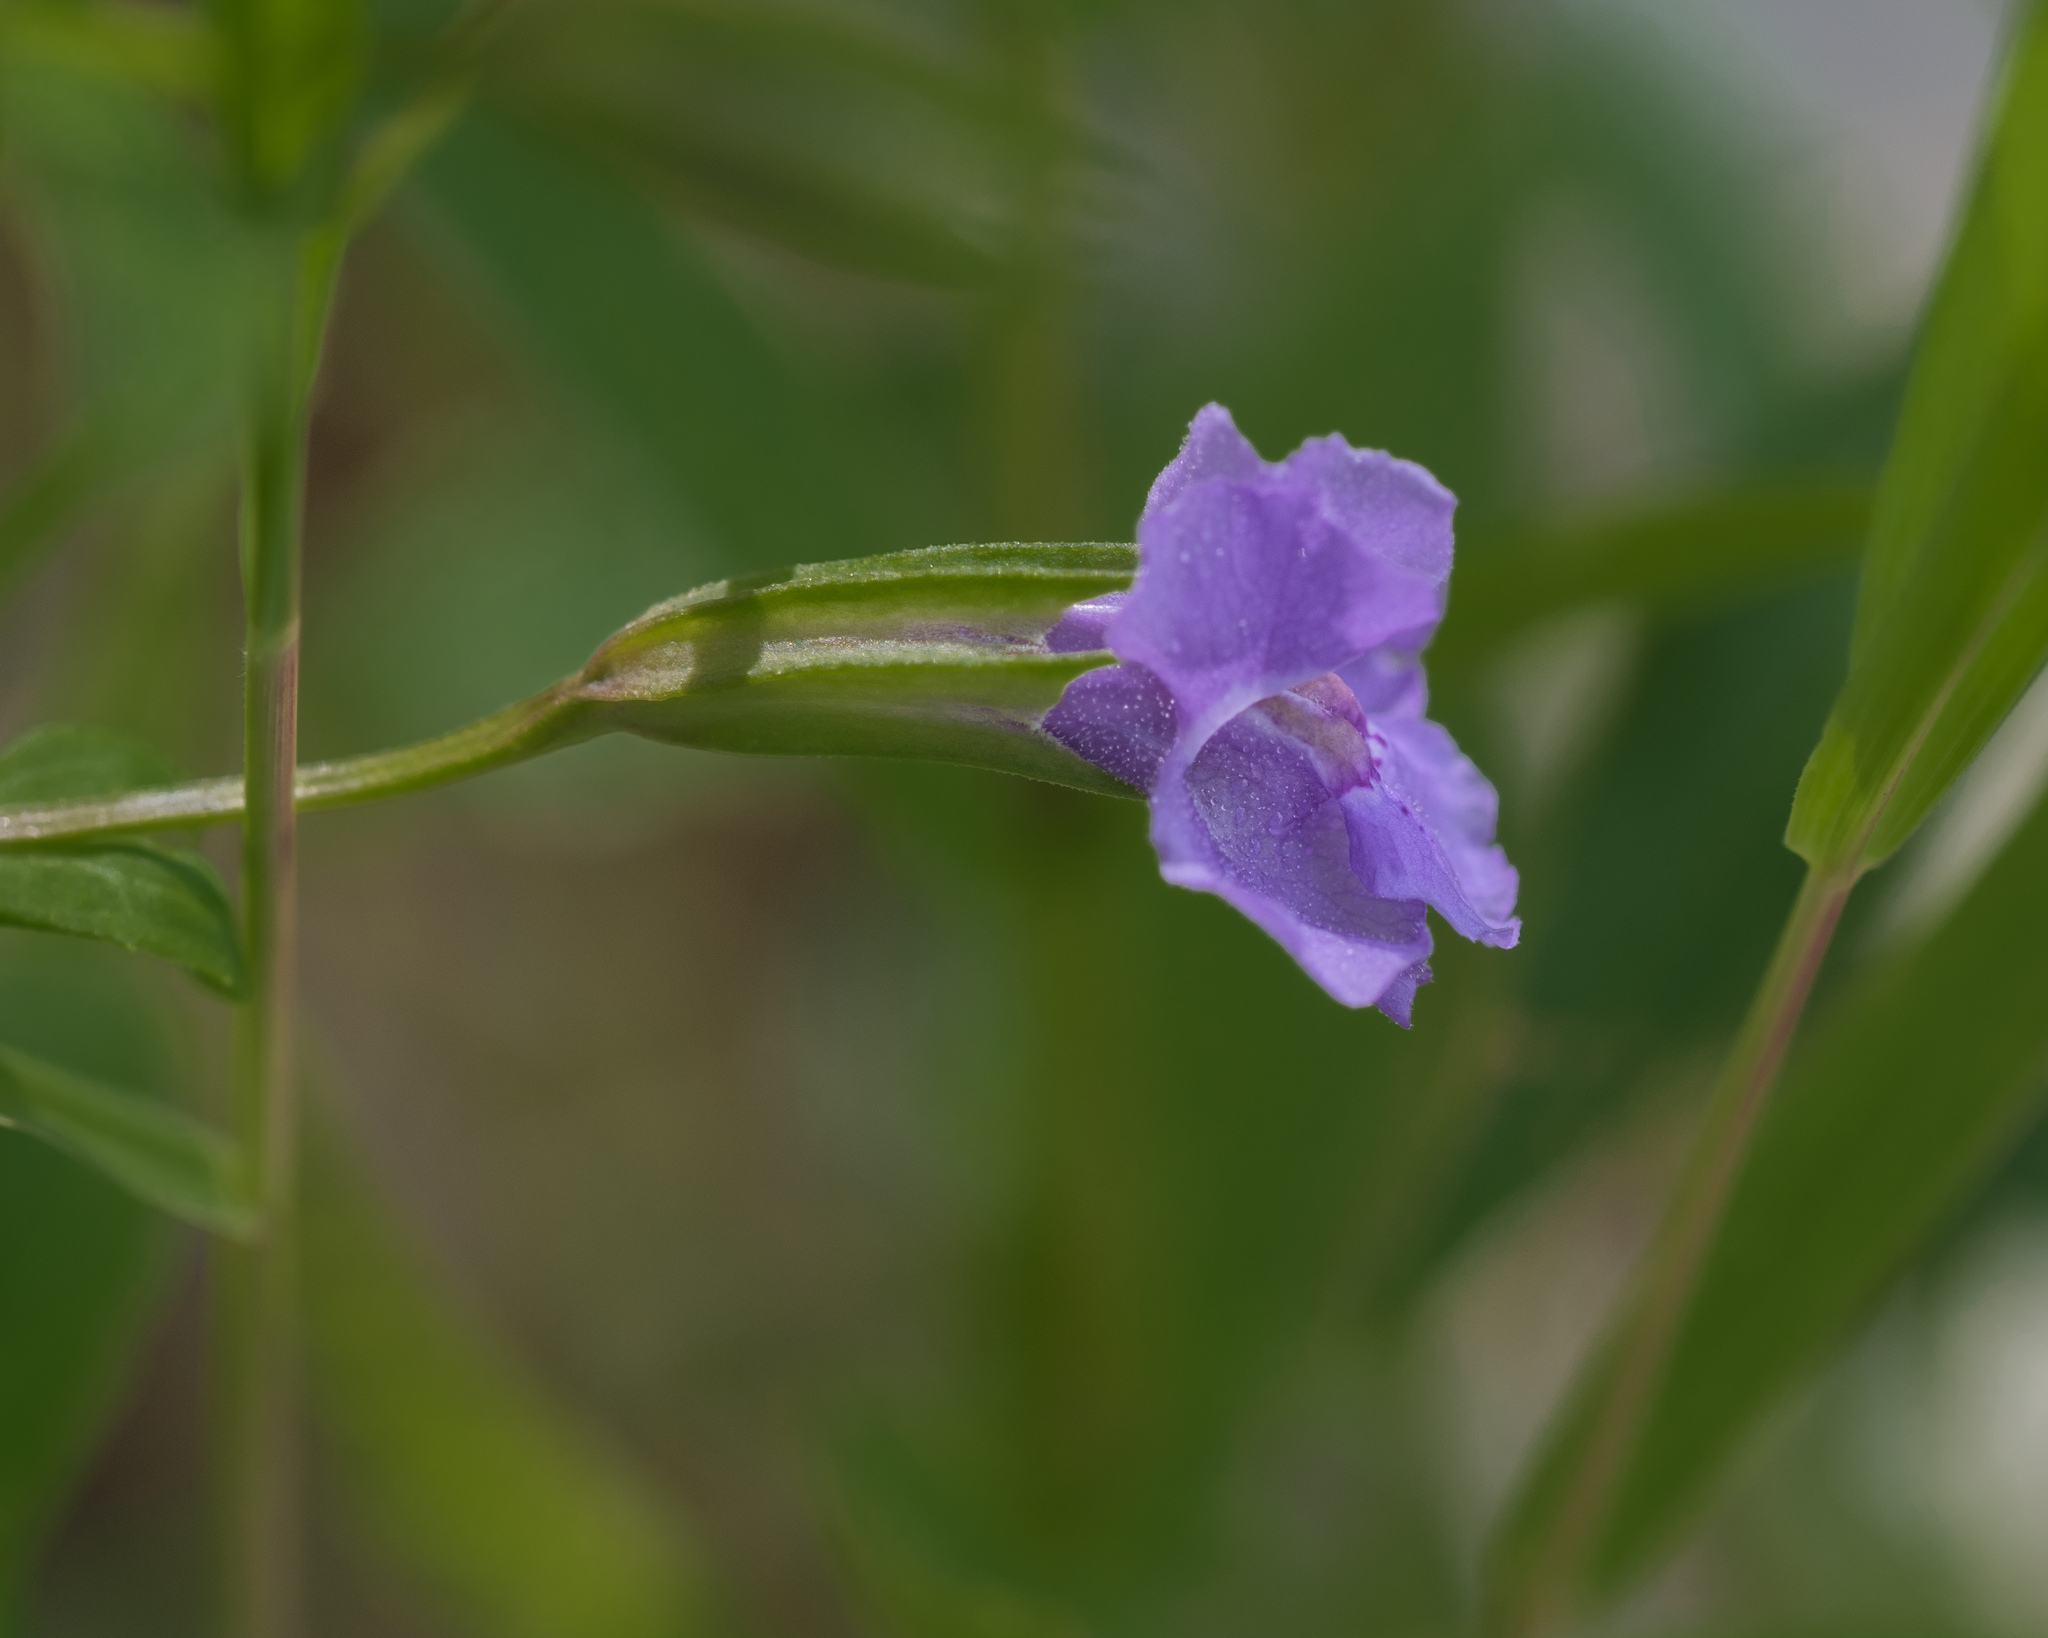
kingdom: Plantae
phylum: Tracheophyta
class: Magnoliopsida
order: Lamiales
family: Phrymaceae
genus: Mimulus
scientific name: Mimulus ringens
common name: Allegheny monkeyflower
